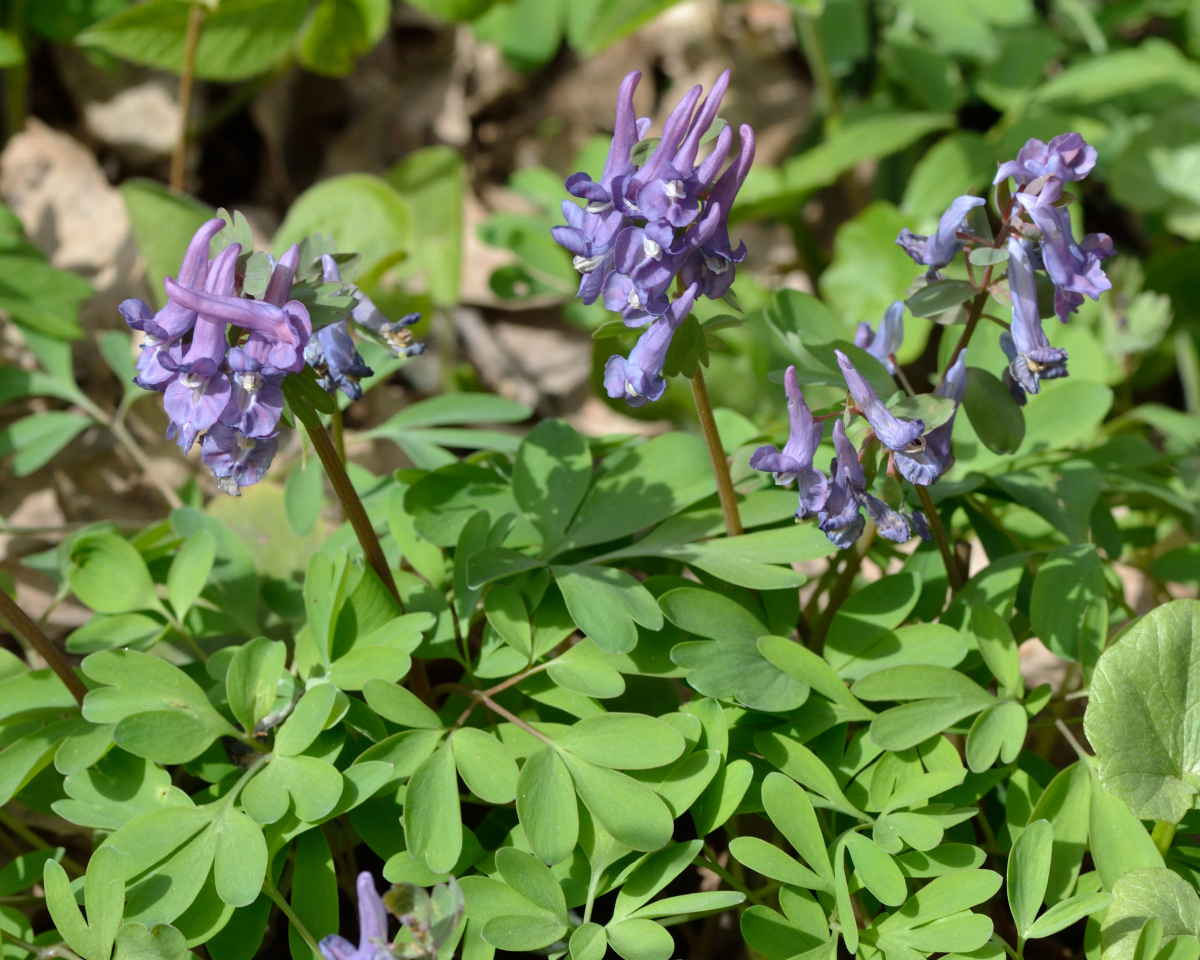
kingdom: Plantae
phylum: Tracheophyta
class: Magnoliopsida
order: Ranunculales
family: Papaveraceae
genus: Corydalis
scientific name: Corydalis solida
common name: Bird-in-a-bush
